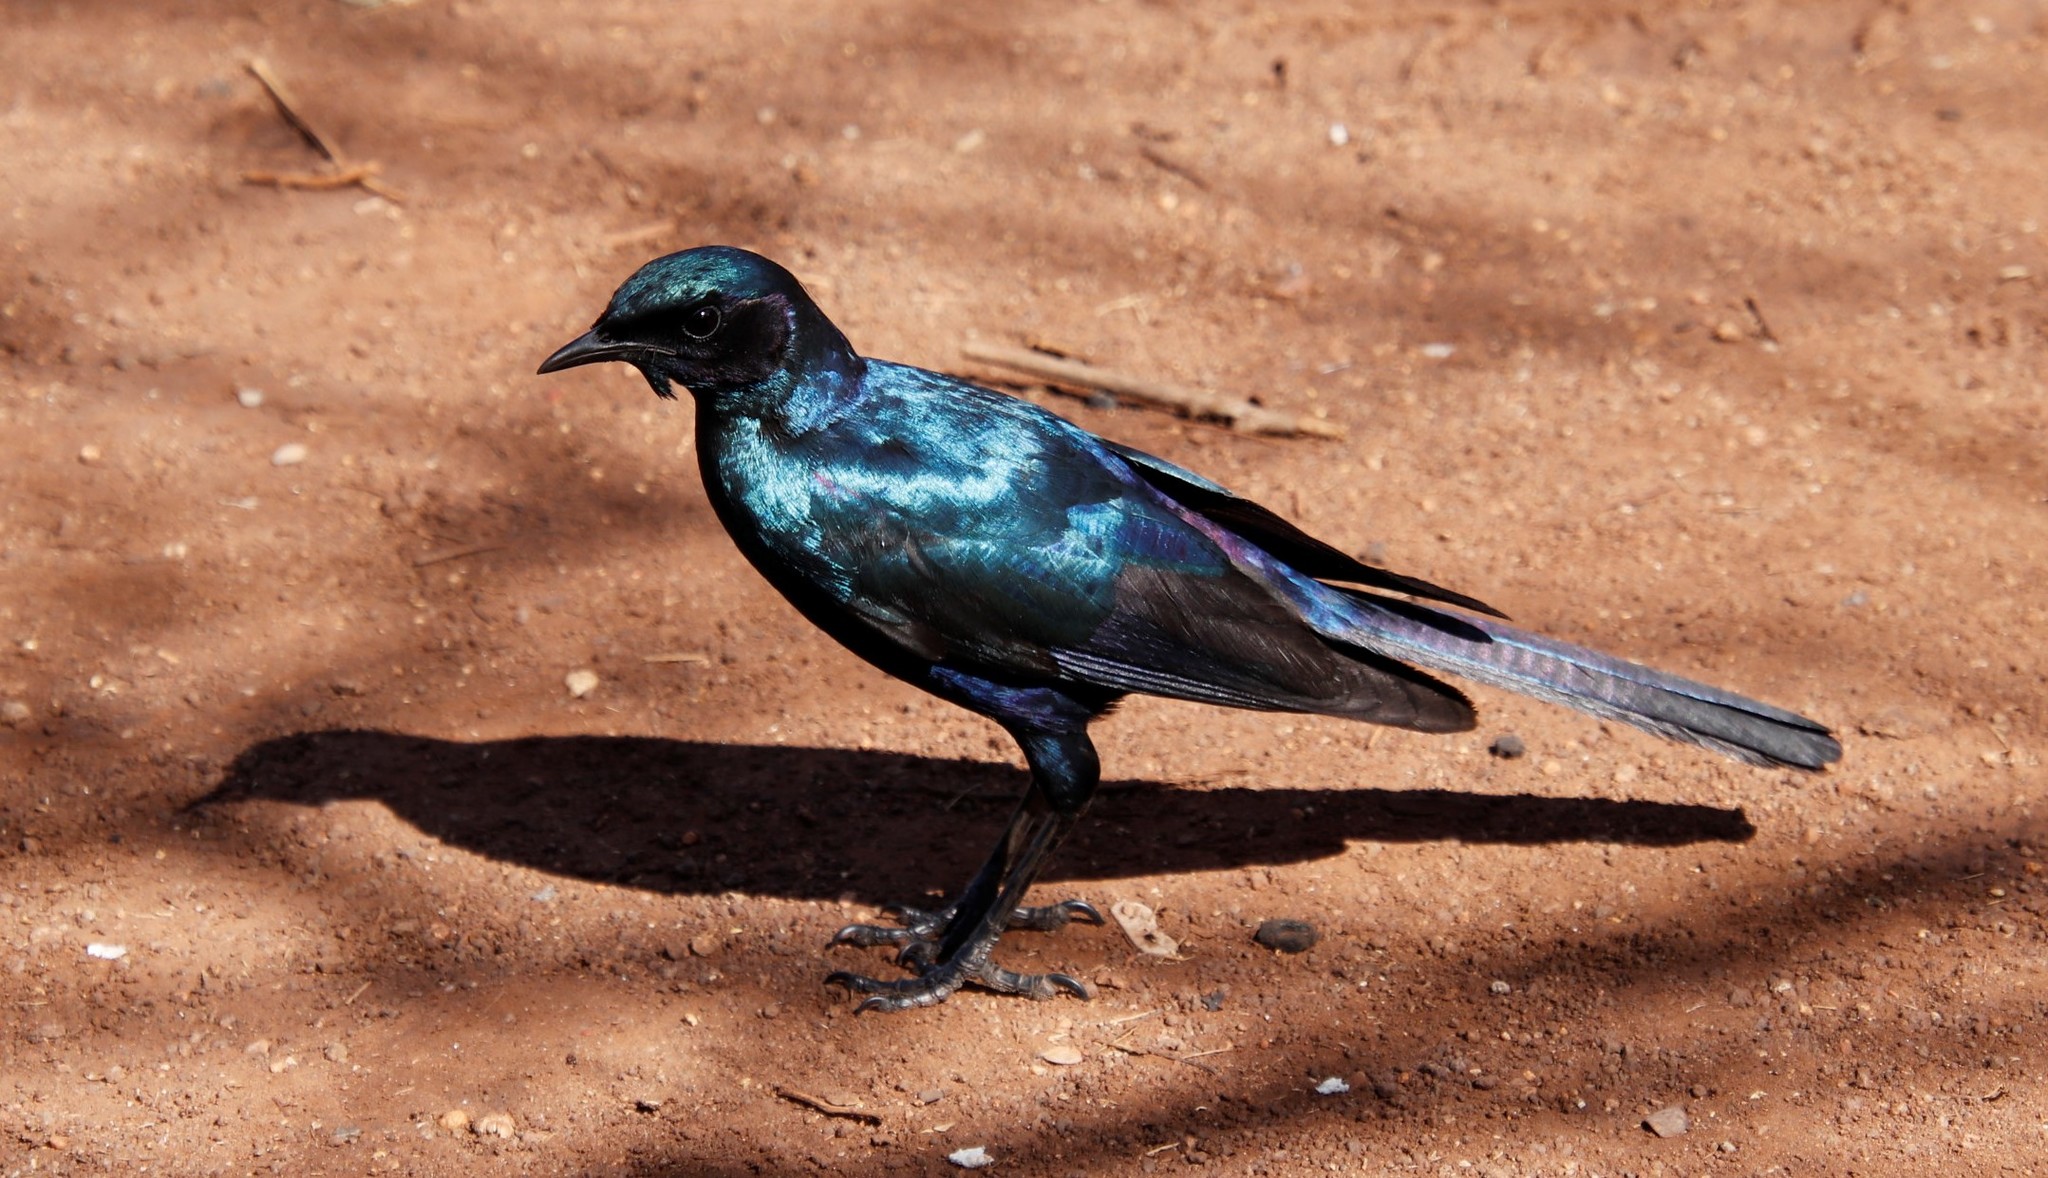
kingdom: Animalia
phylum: Chordata
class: Aves
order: Passeriformes
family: Sturnidae
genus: Lamprotornis
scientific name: Lamprotornis australis
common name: Burchell's starling
